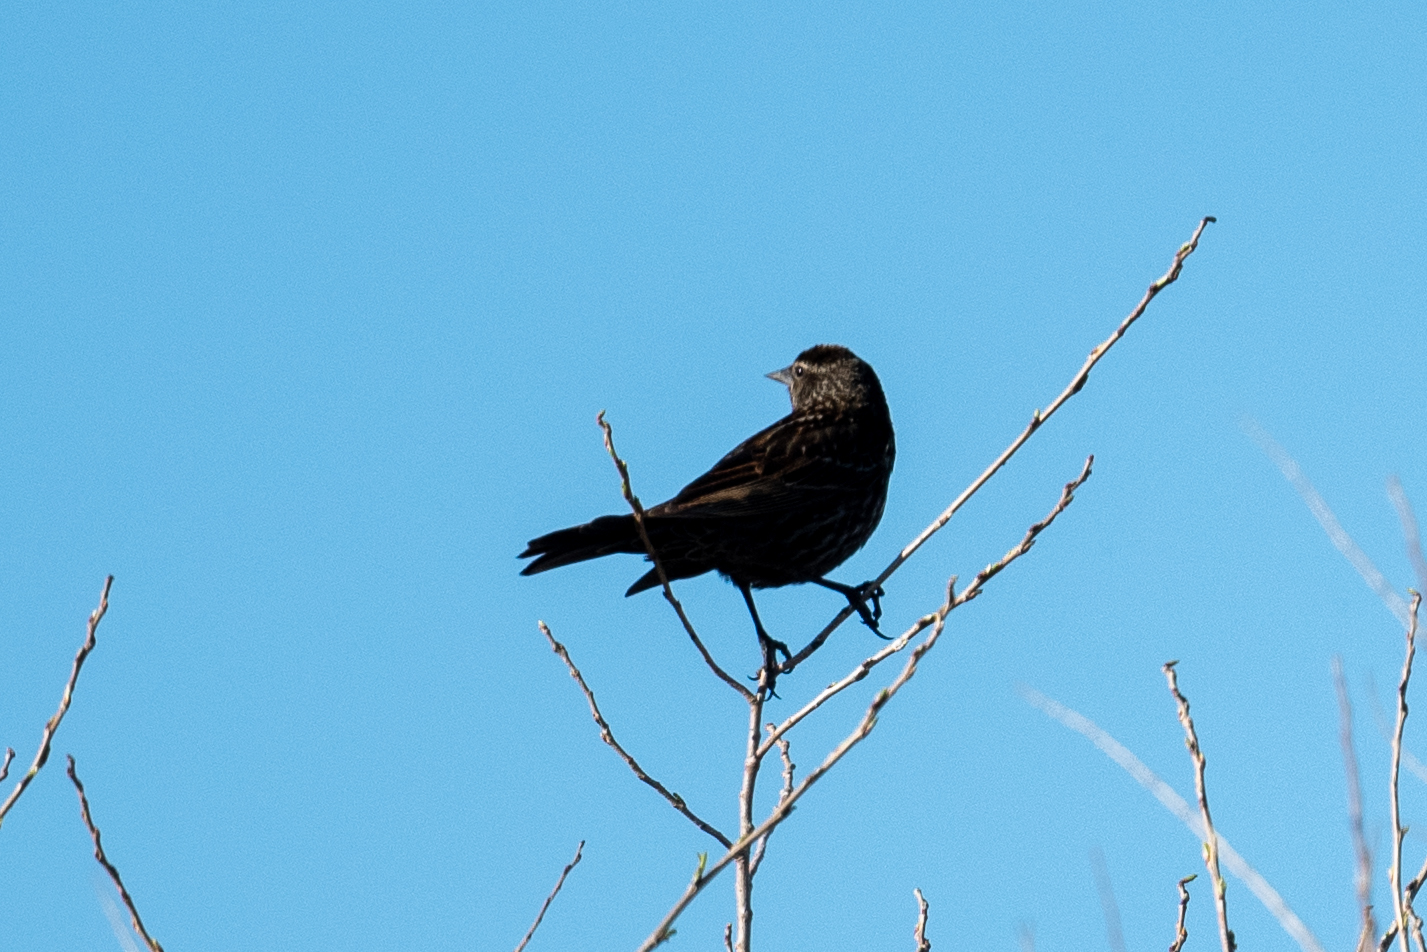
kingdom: Animalia
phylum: Chordata
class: Aves
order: Passeriformes
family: Icteridae
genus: Agelaius
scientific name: Agelaius phoeniceus
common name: Red-winged blackbird
